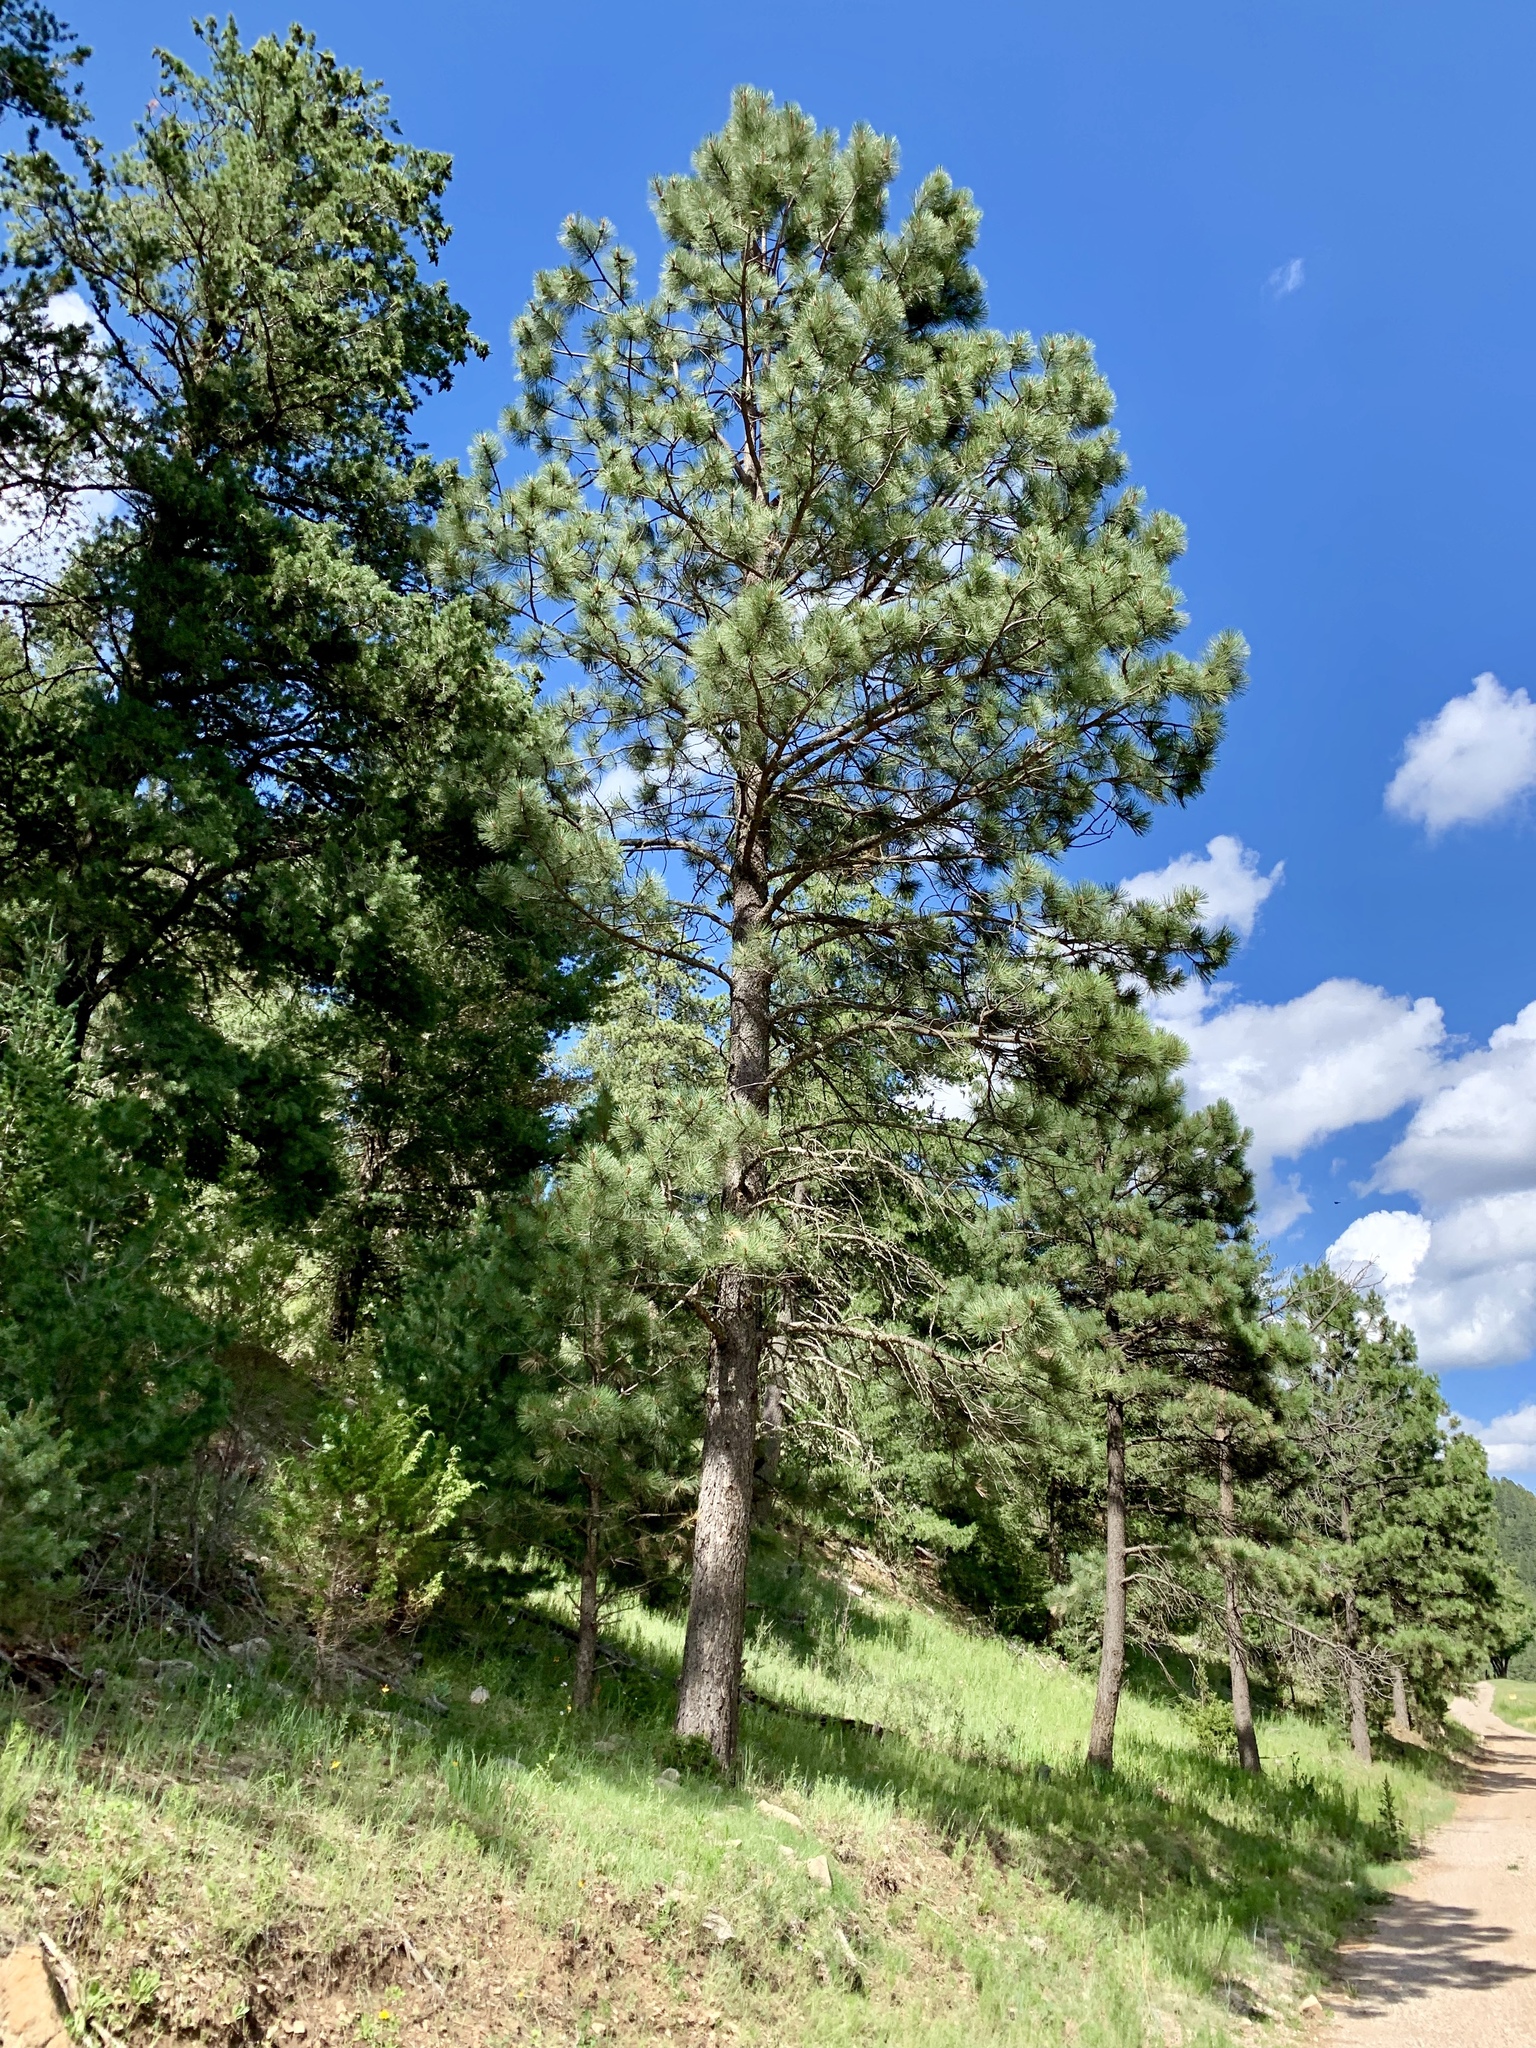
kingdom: Plantae
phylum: Tracheophyta
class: Pinopsida
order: Pinales
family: Pinaceae
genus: Pinus
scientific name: Pinus ponderosa
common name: Western yellow-pine
